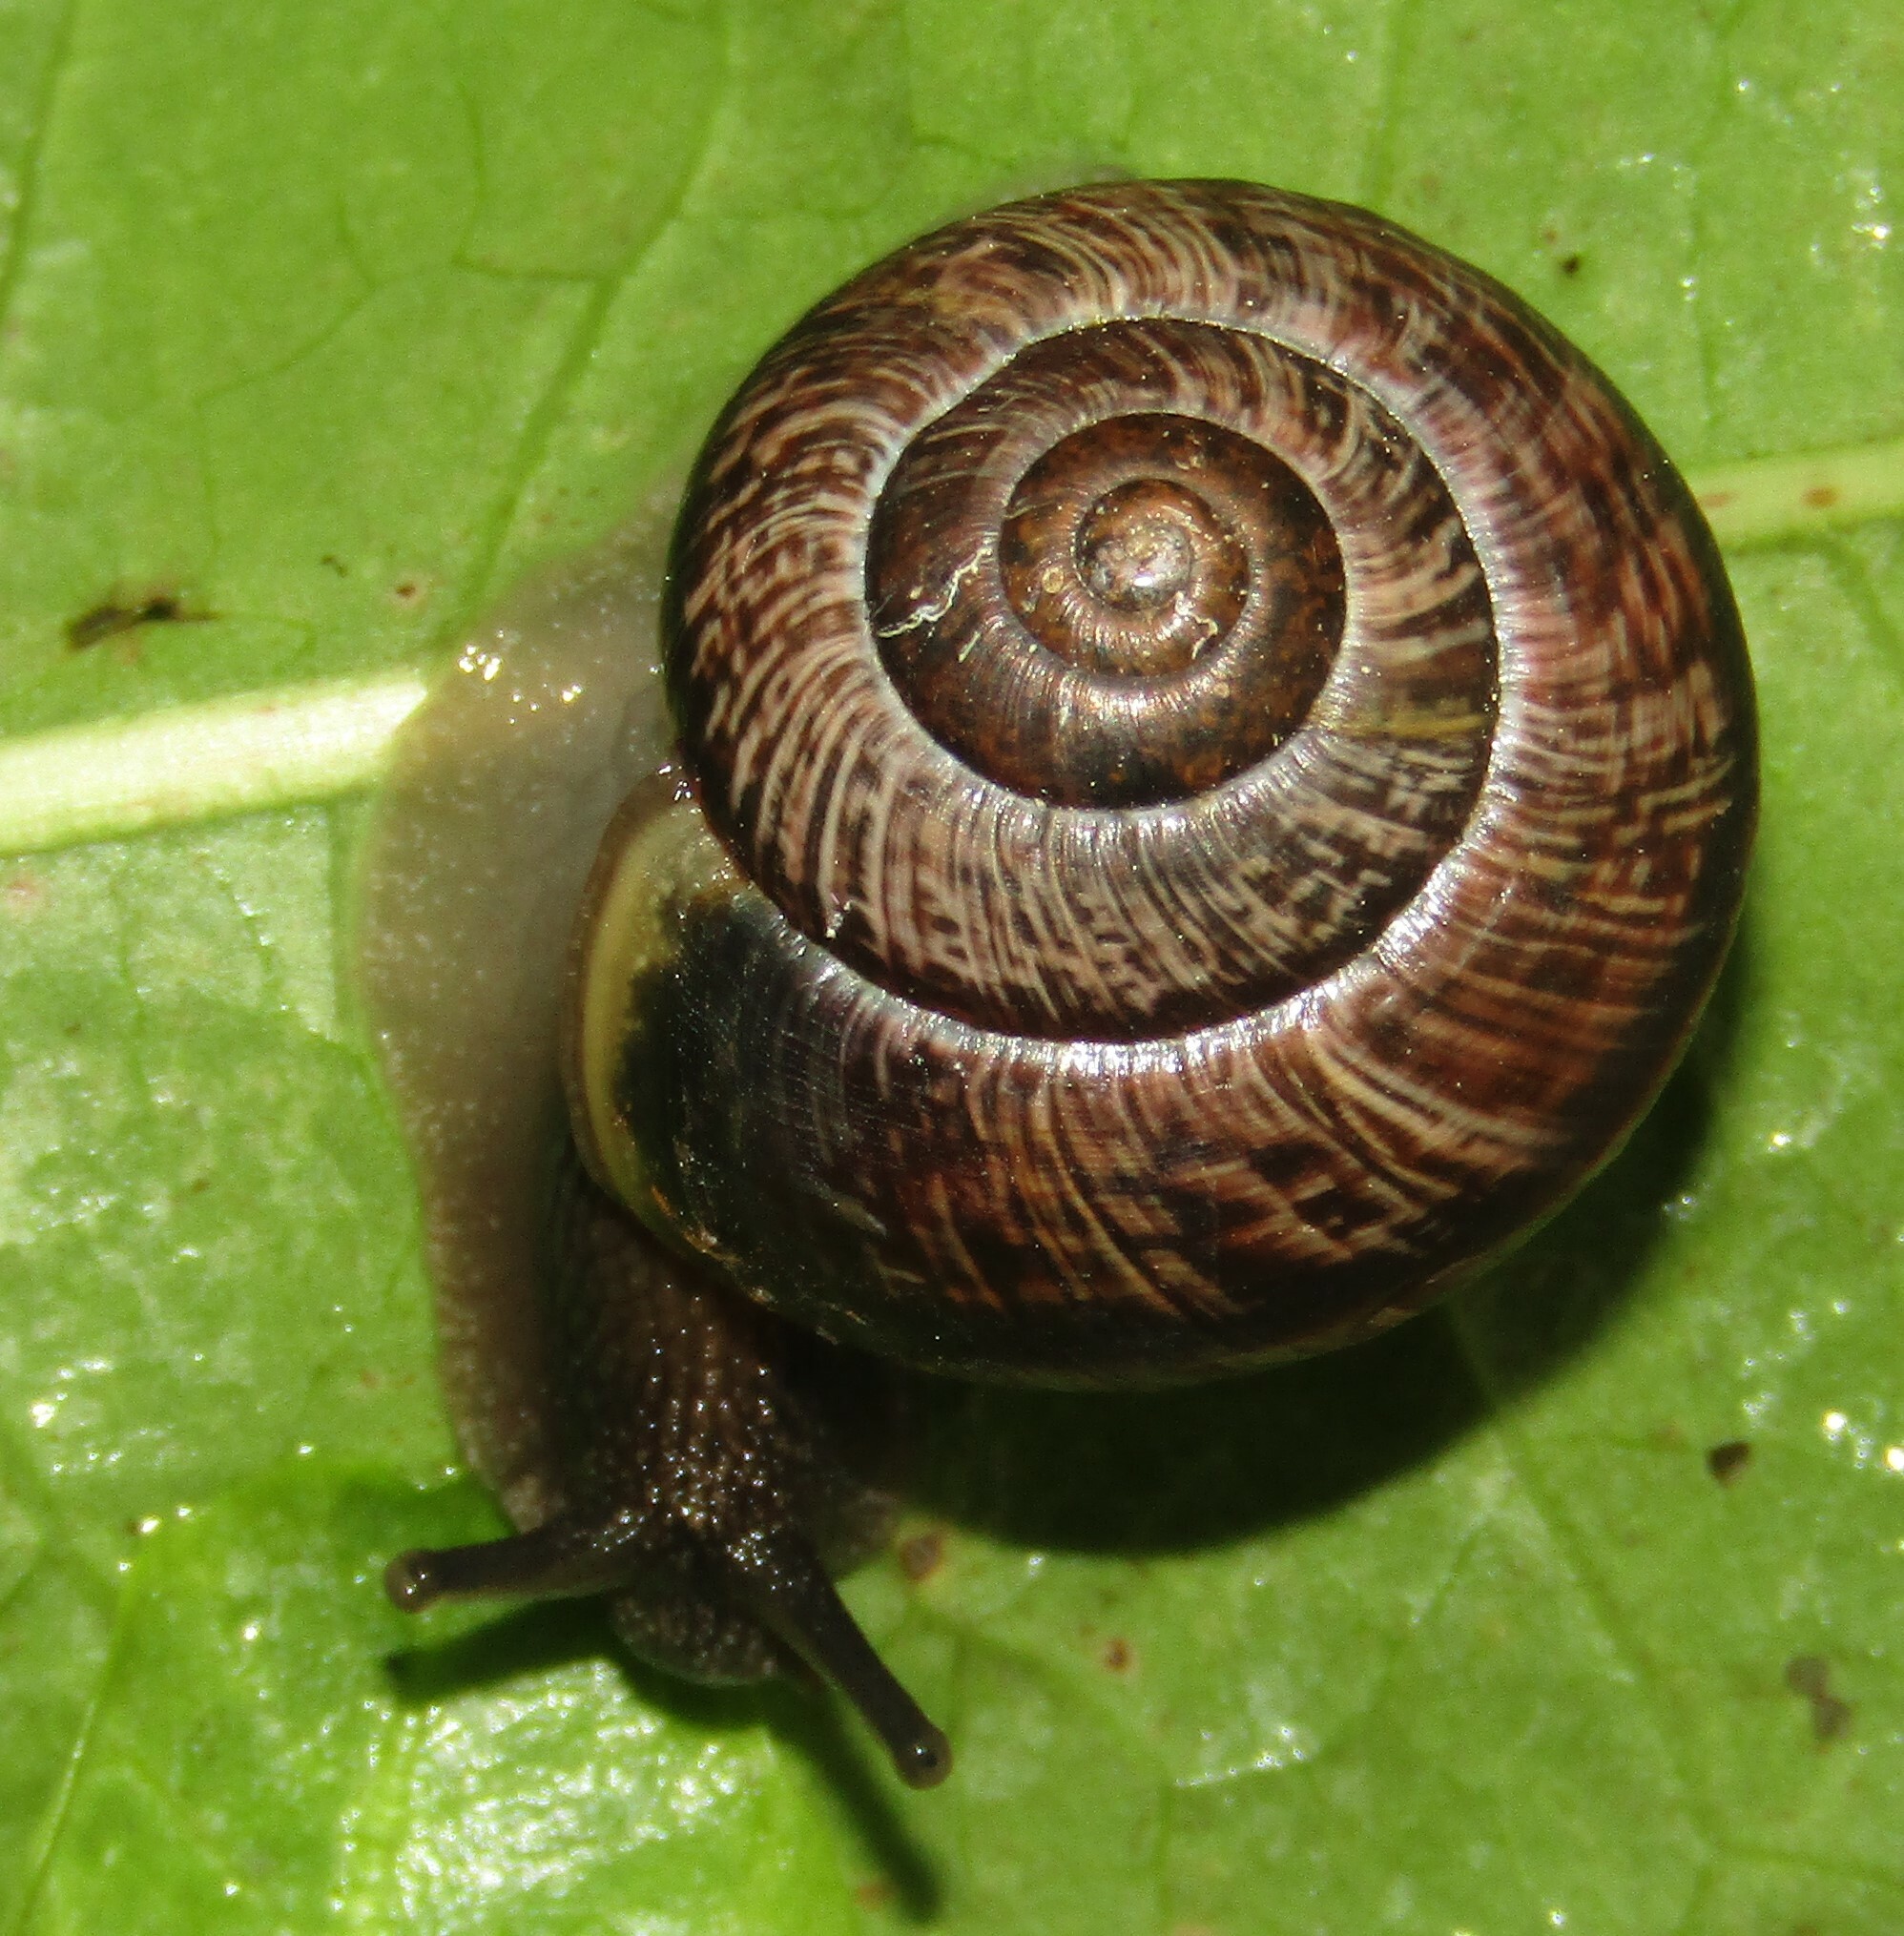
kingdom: Animalia
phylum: Mollusca
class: Gastropoda
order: Stylommatophora
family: Helicidae
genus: Arianta
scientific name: Arianta arbustorum
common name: Copse snail
